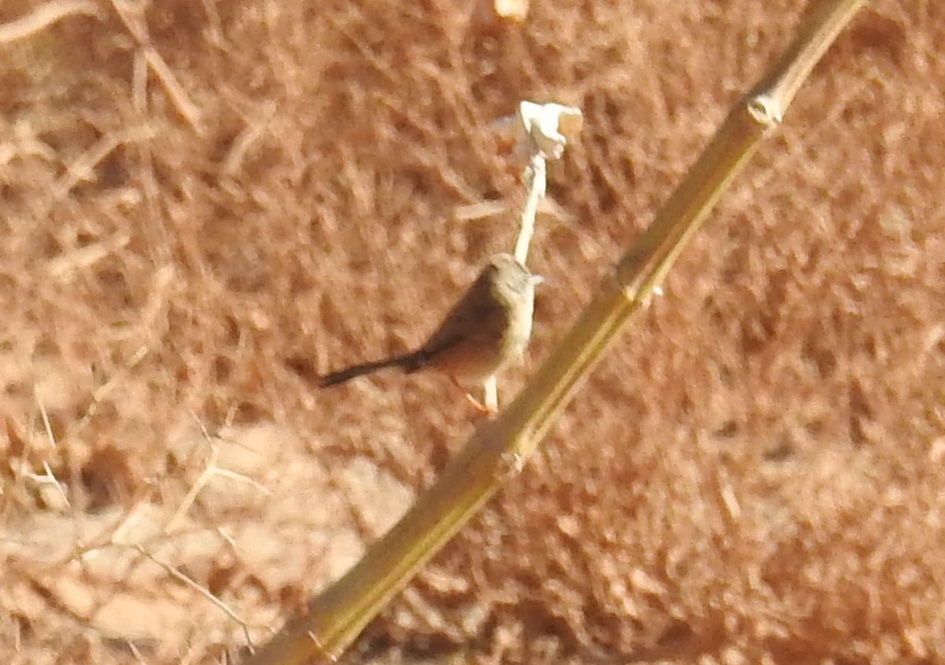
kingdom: Animalia
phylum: Chordata
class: Aves
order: Passeriformes
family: Sylviidae
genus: Sylvia
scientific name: Sylvia deserticola
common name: Tristram's warbler
